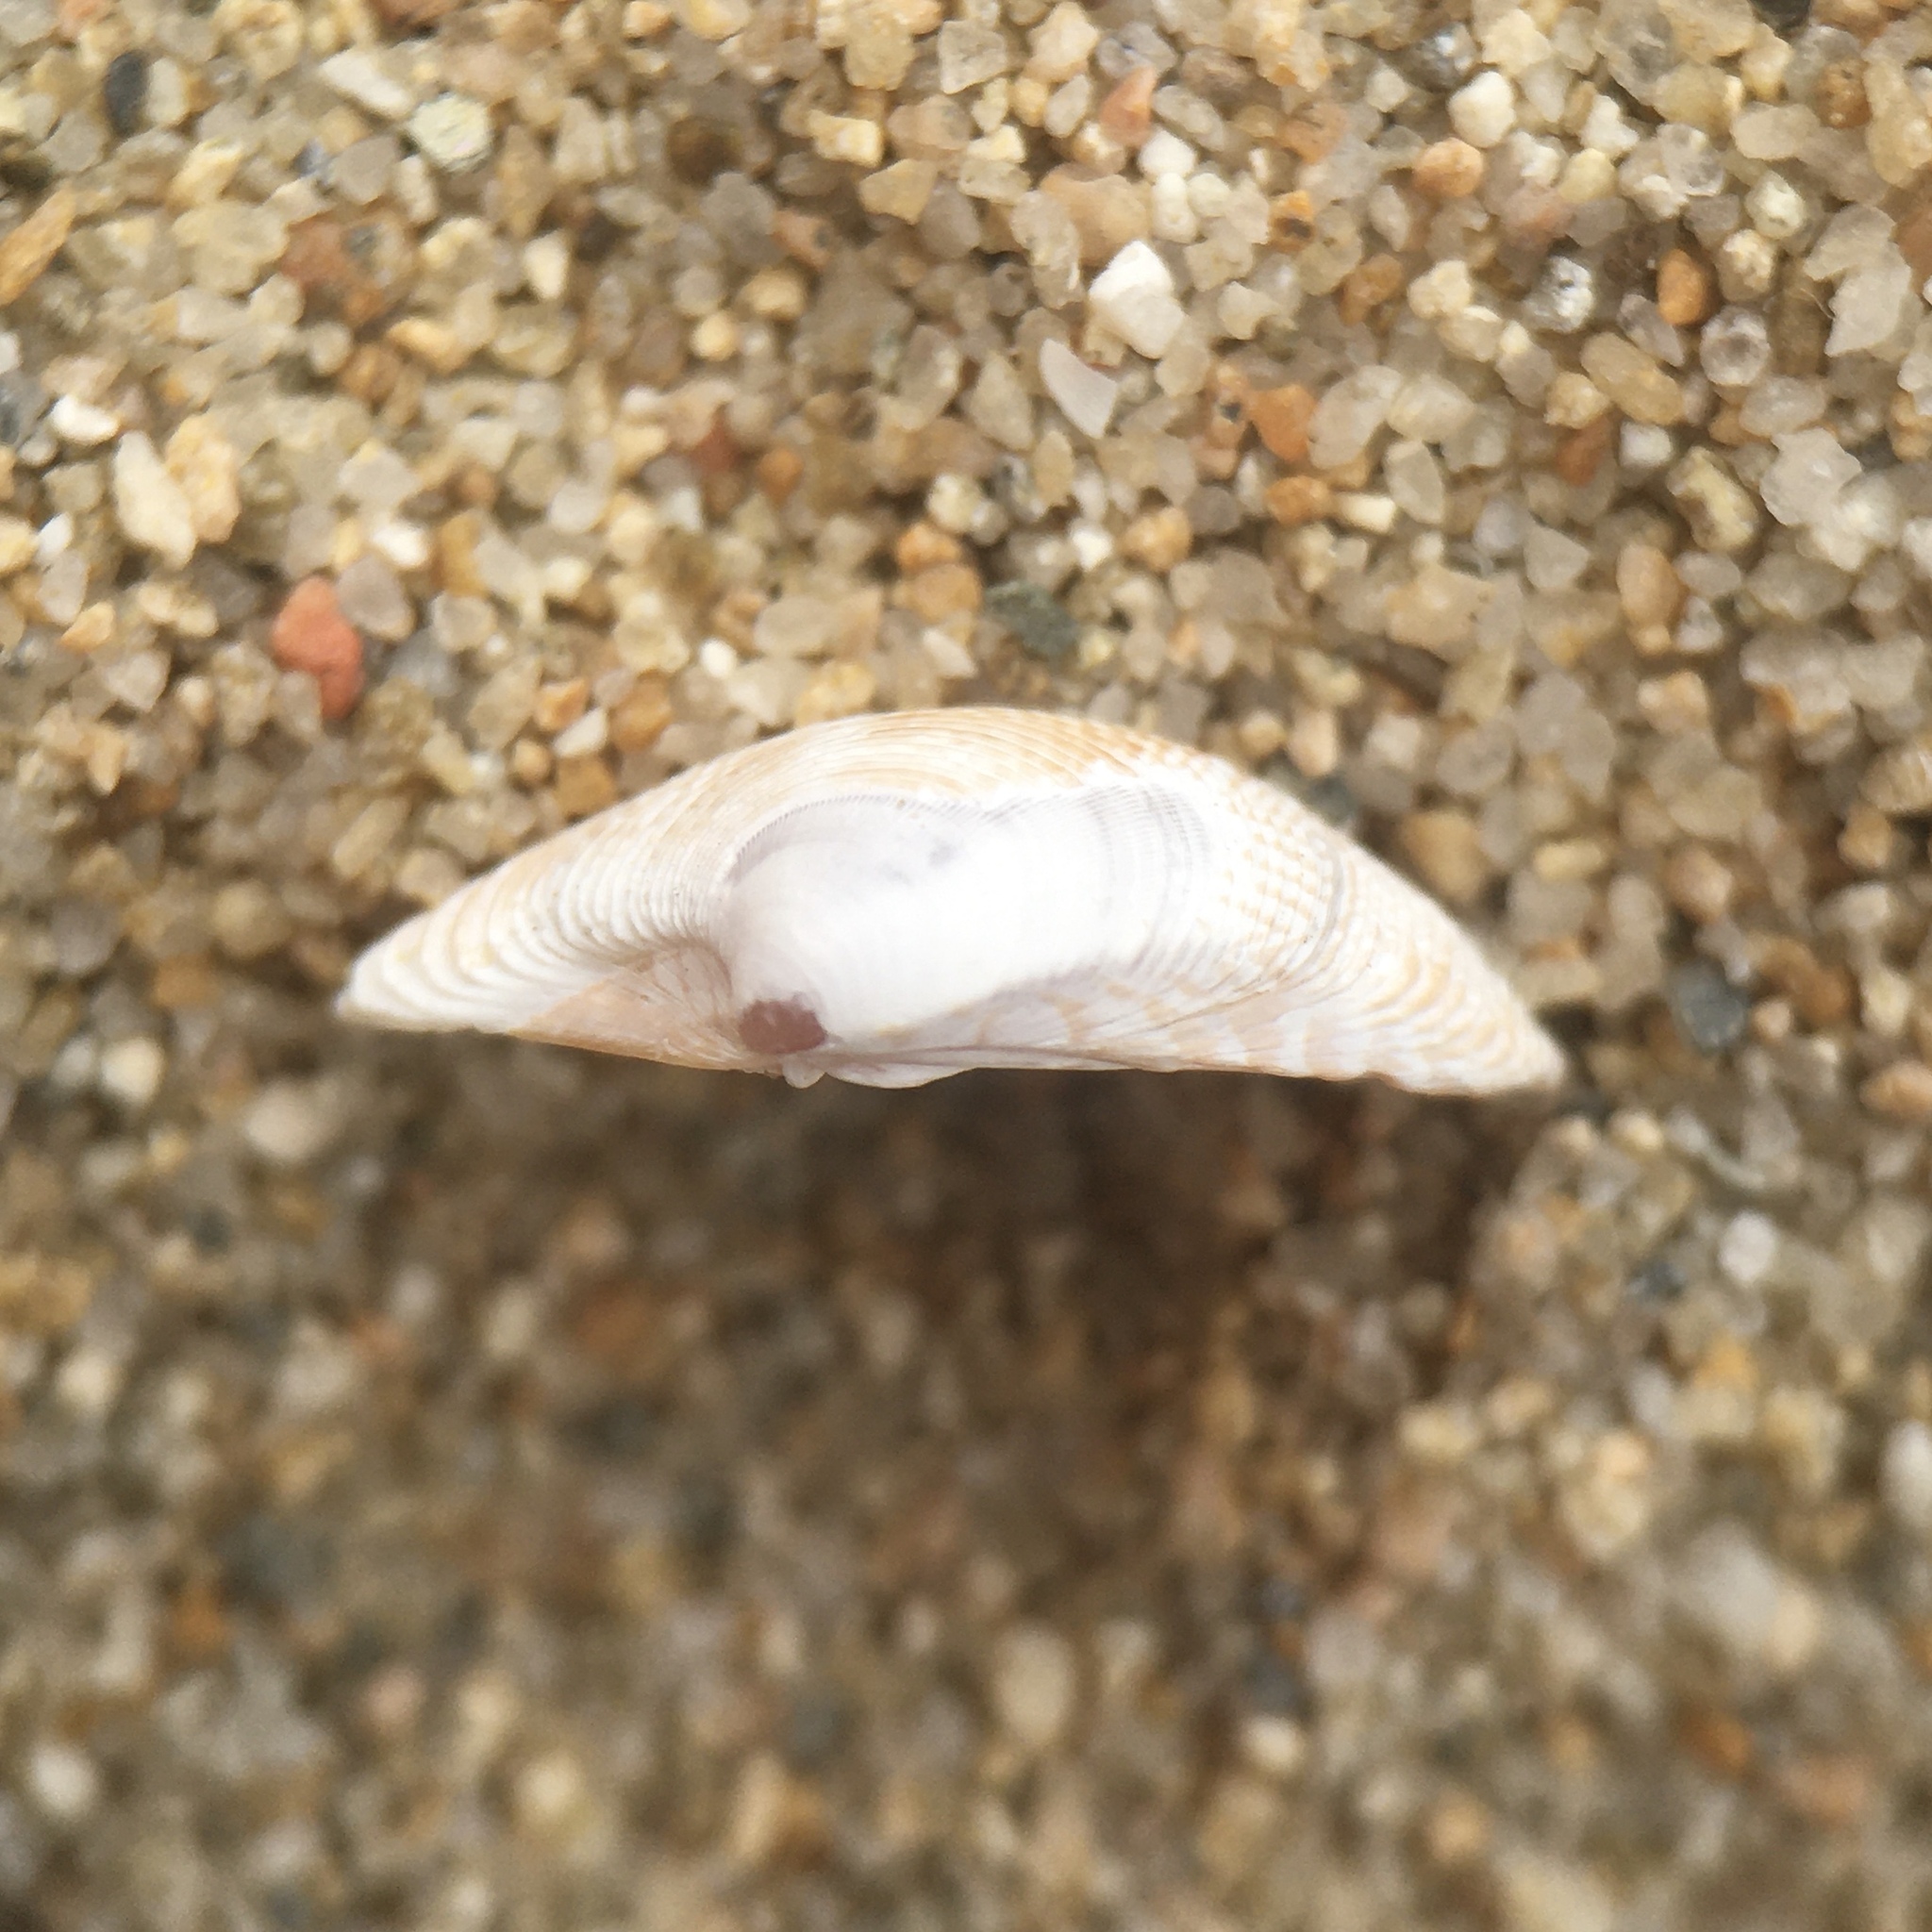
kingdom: Animalia
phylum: Mollusca
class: Bivalvia
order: Venerida
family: Veneridae
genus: Chamelea
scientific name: Chamelea gallina
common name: Chicken venus
